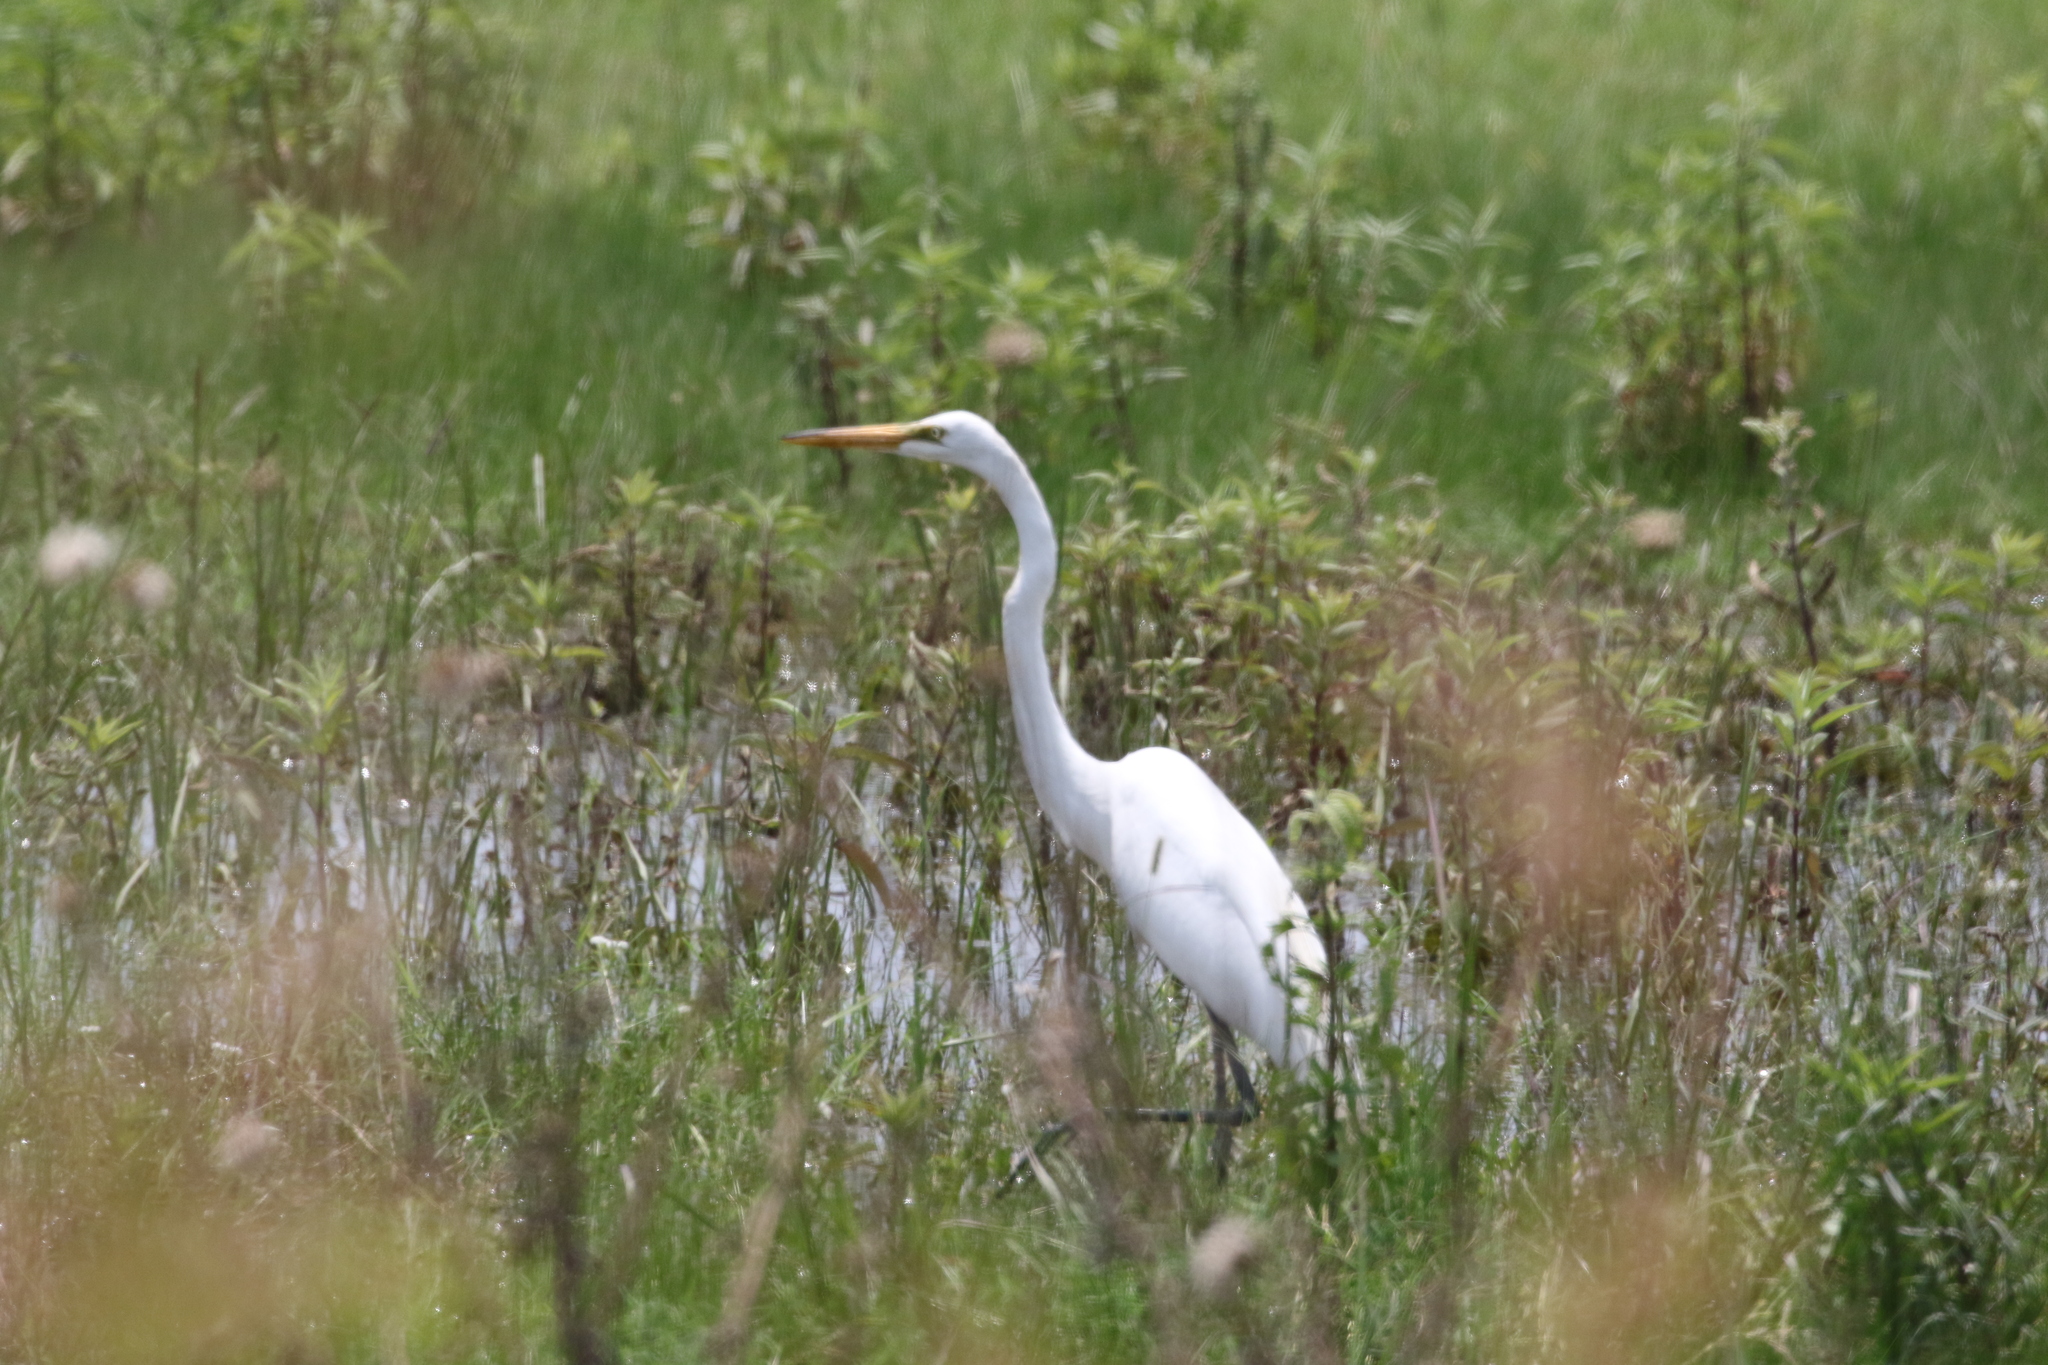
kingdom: Animalia
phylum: Chordata
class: Aves
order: Pelecaniformes
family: Ardeidae
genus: Ardea
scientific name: Ardea alba
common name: Great egret
